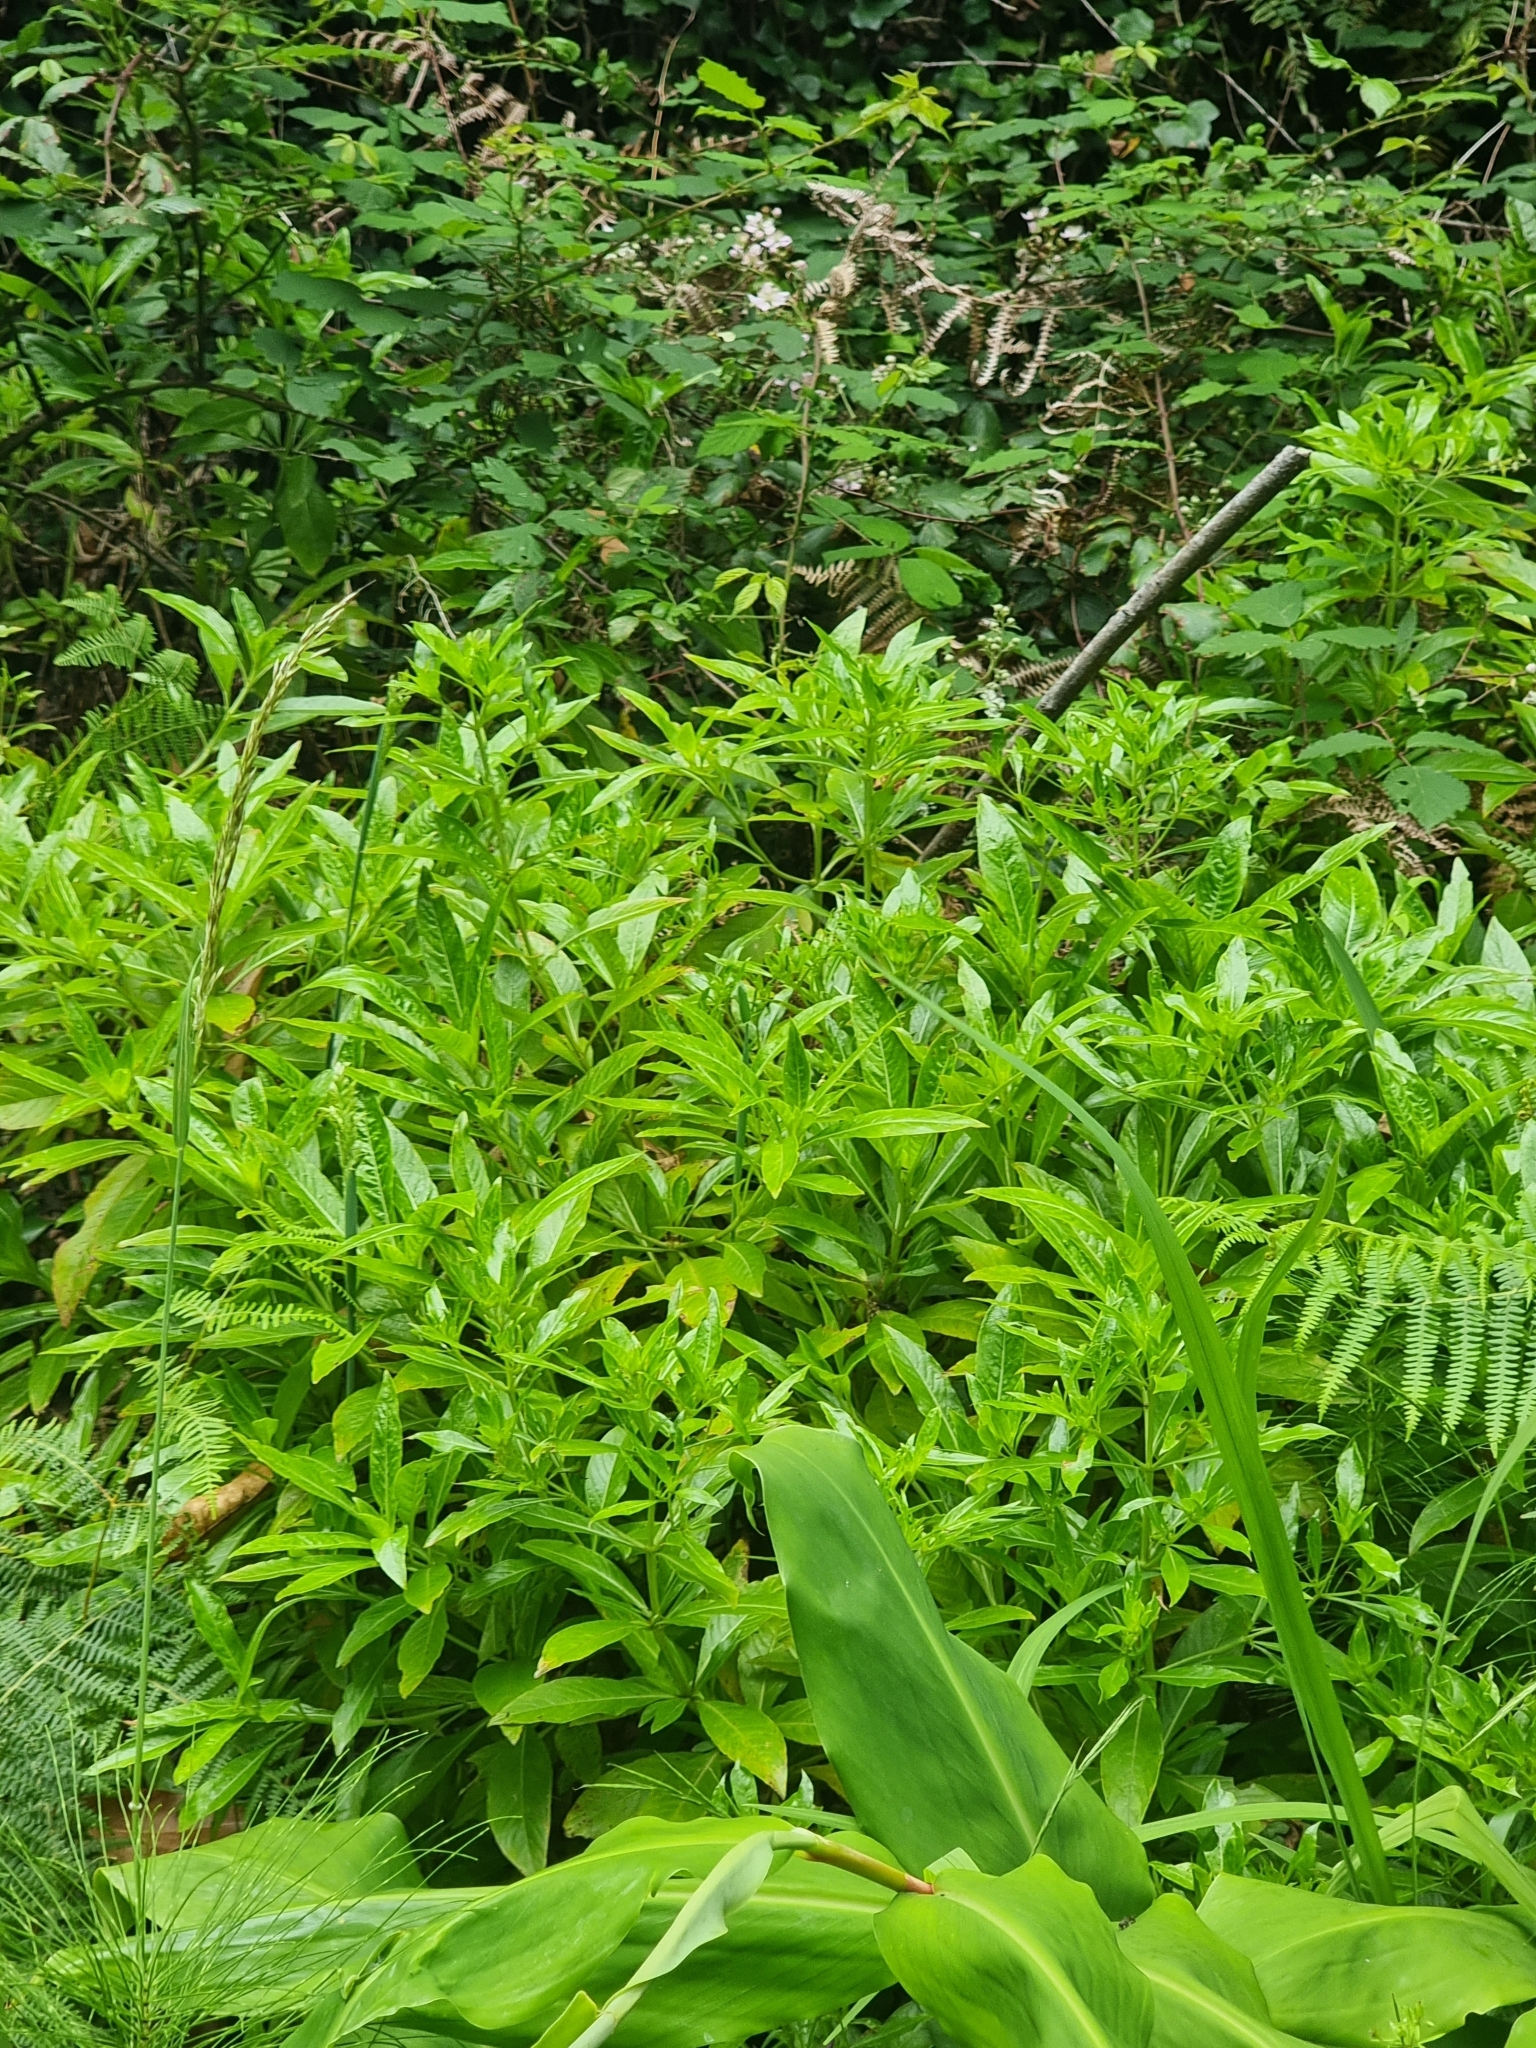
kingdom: Plantae
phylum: Tracheophyta
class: Magnoliopsida
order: Gentianales
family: Rubiaceae
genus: Phyllis
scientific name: Phyllis nobla
